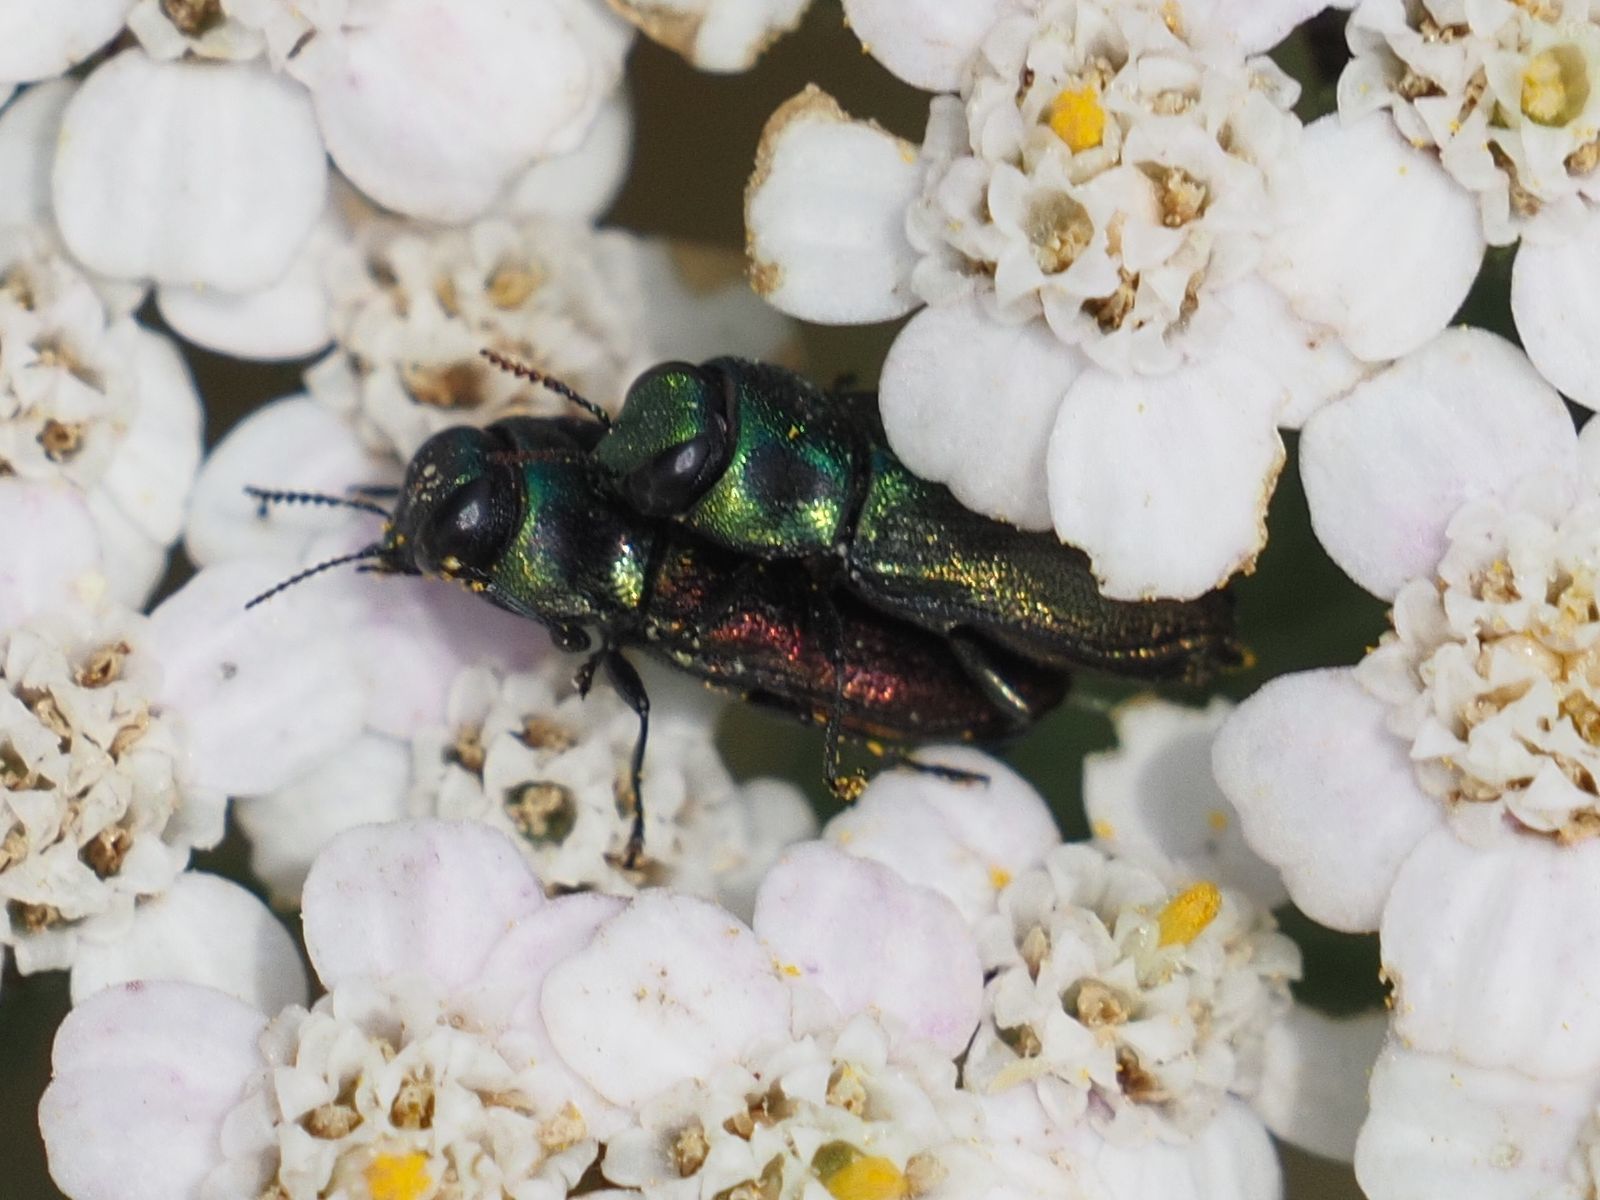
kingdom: Animalia
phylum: Arthropoda
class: Insecta
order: Coleoptera
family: Buprestidae
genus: Anthaxia
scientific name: Anthaxia podolica
